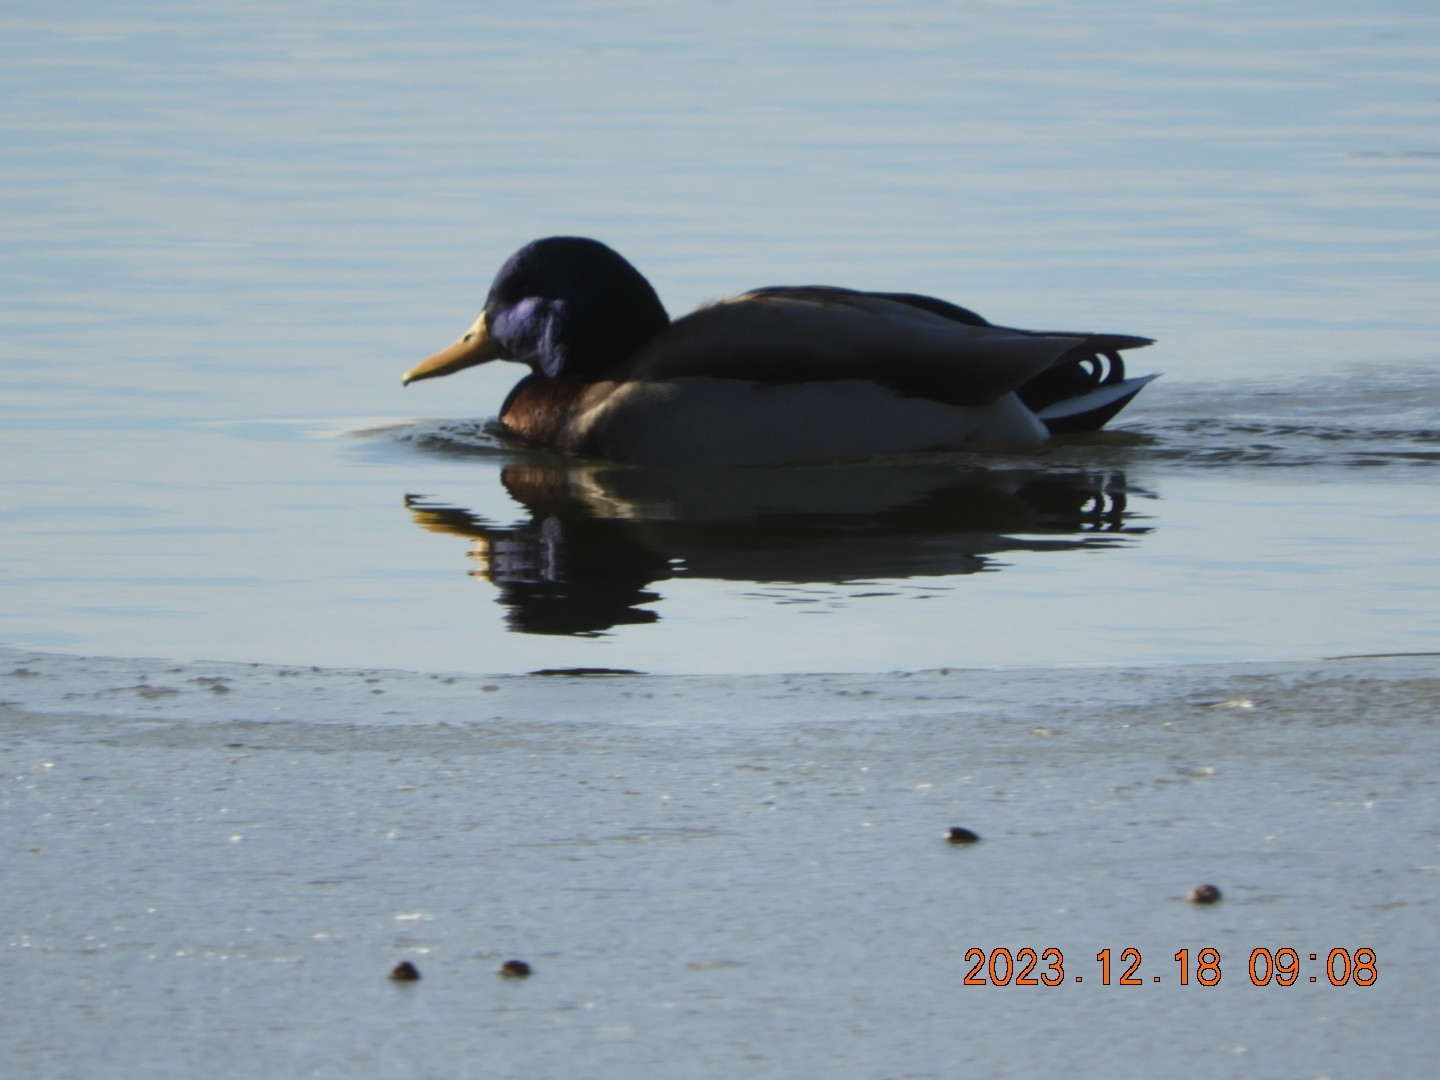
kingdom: Animalia
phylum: Chordata
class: Aves
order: Anseriformes
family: Anatidae
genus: Anas
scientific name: Anas platyrhynchos
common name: Mallard
